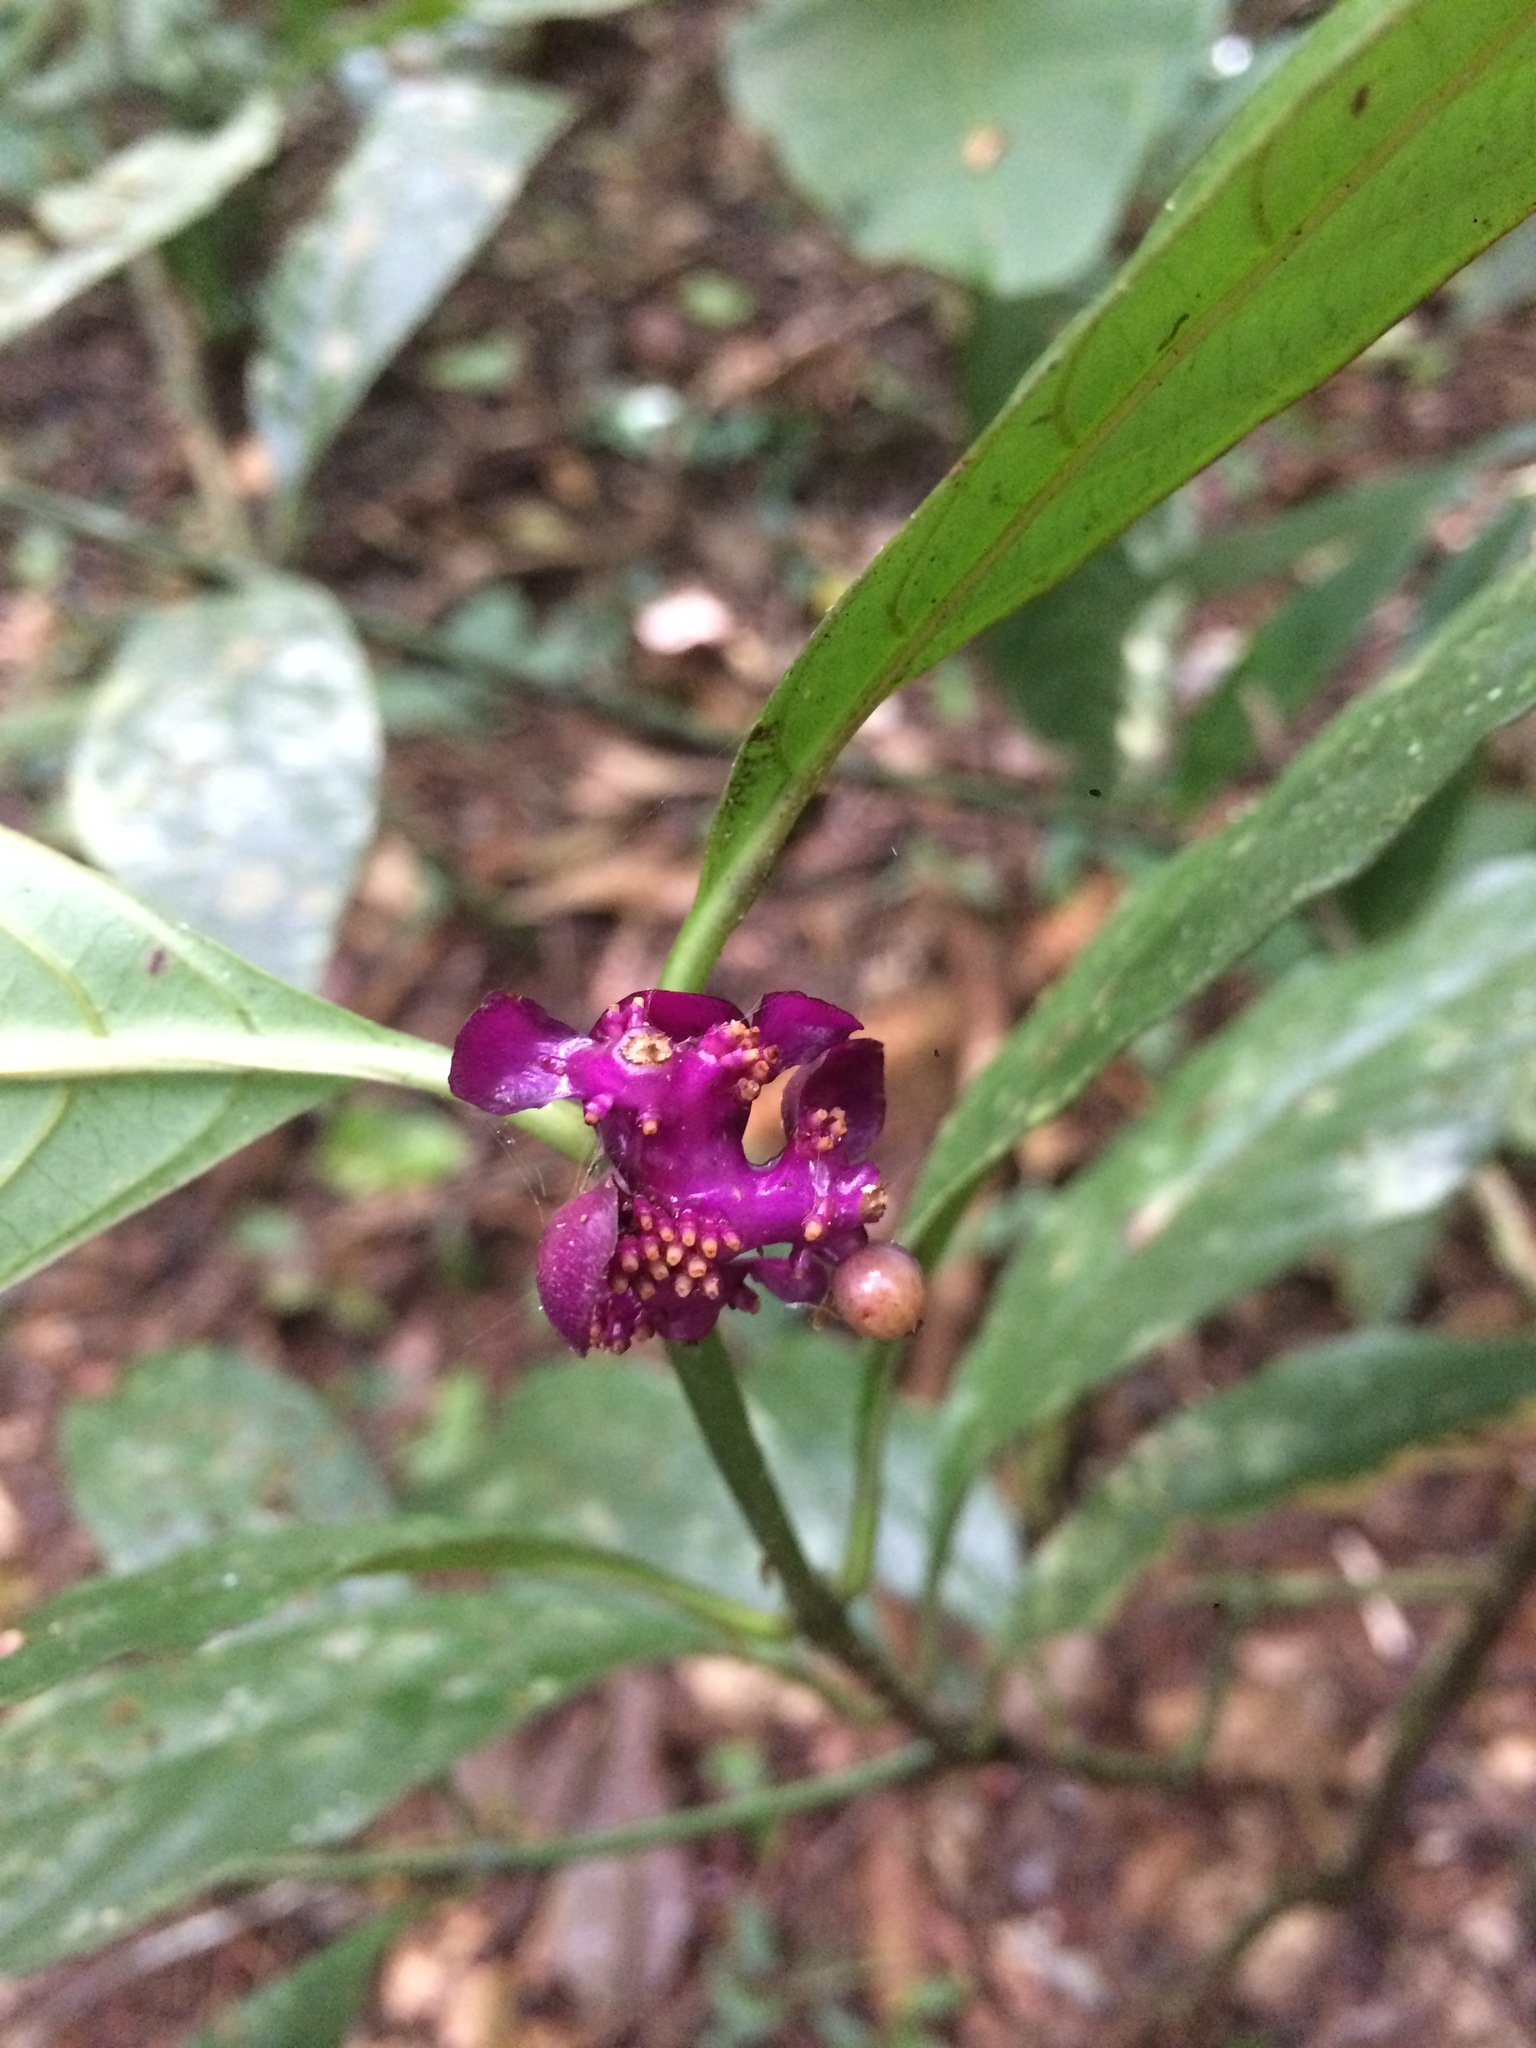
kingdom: Plantae
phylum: Tracheophyta
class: Magnoliopsida
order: Gentianales
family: Rubiaceae
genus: Palicourea
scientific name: Palicourea dichotoma
